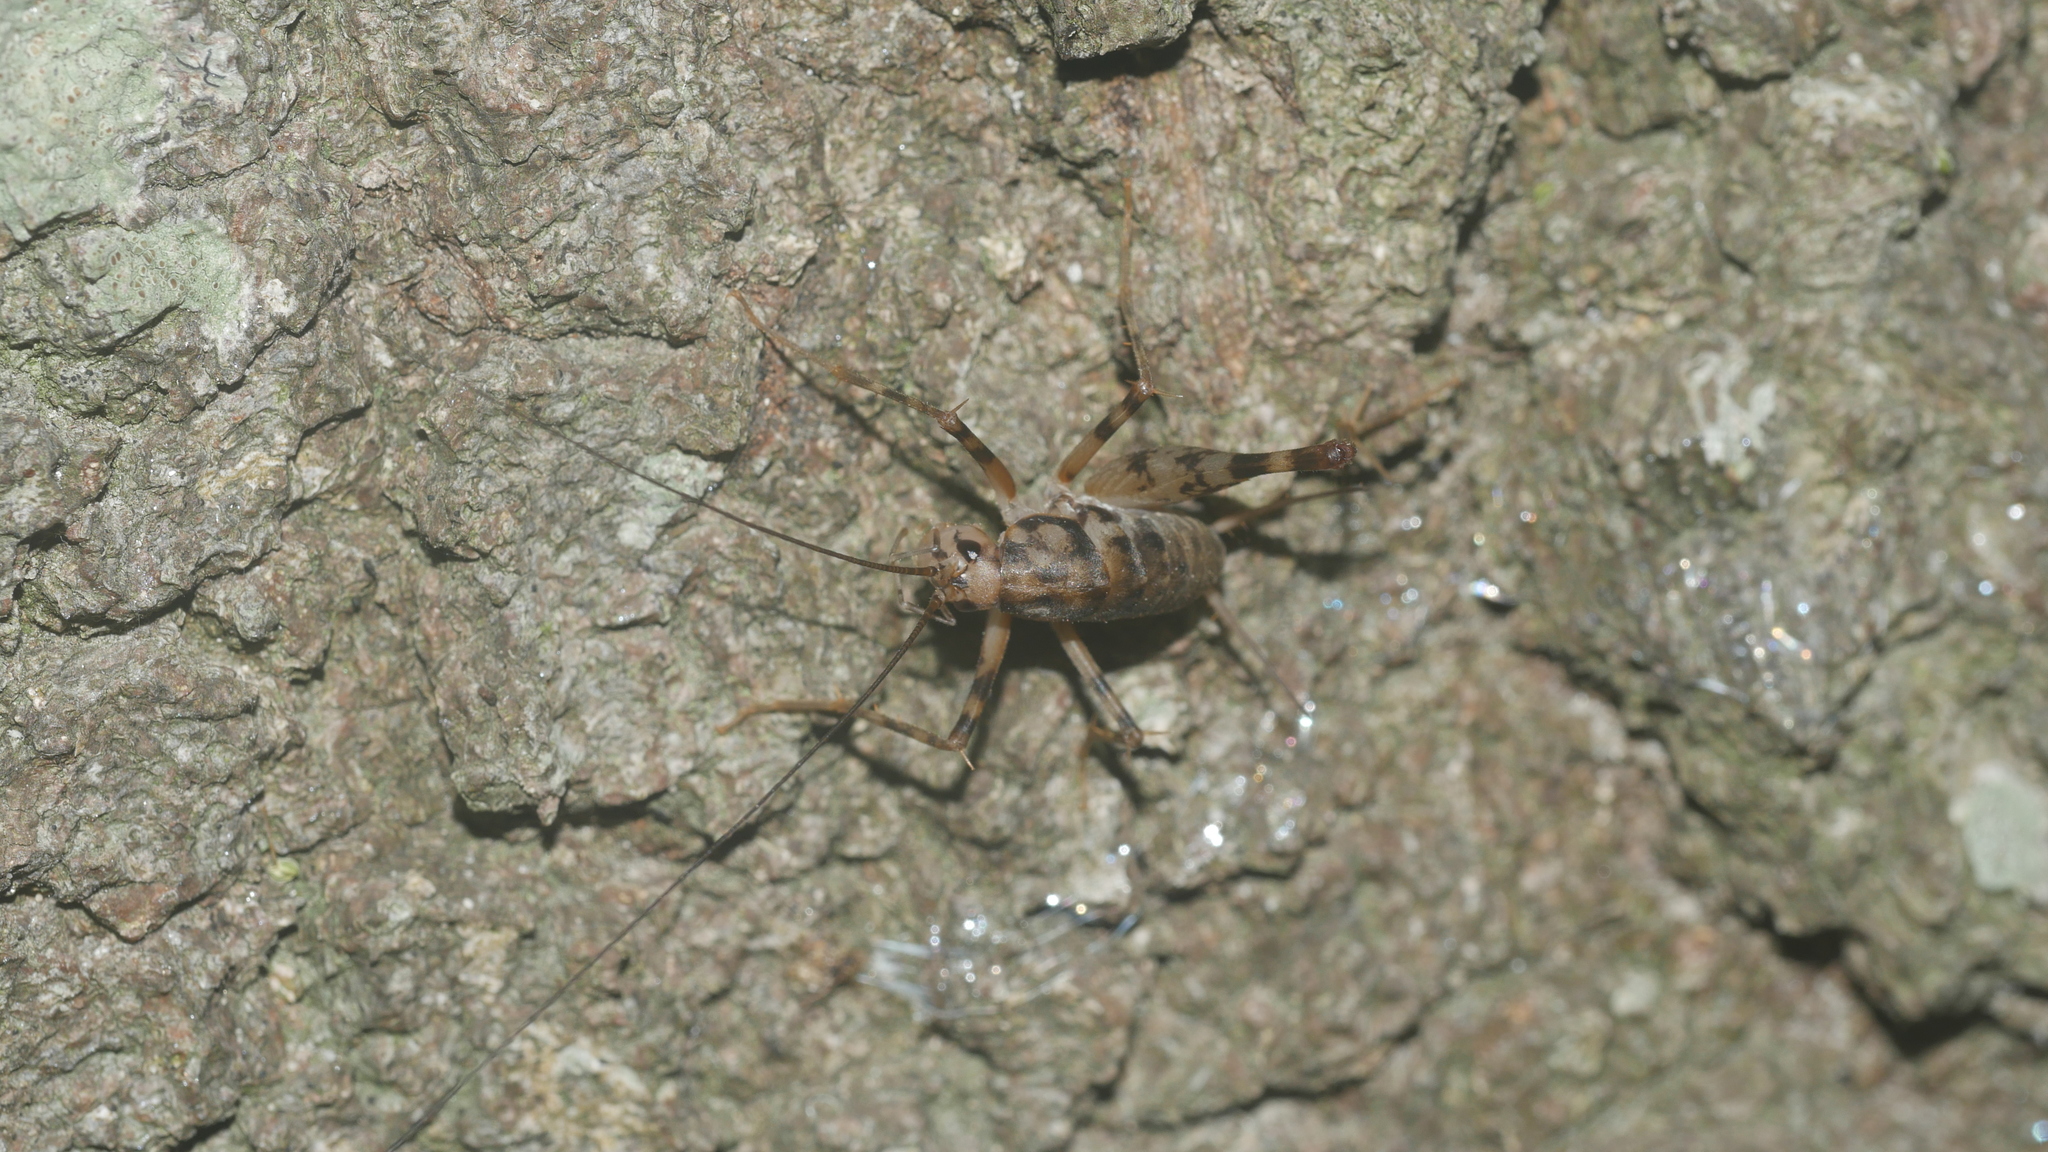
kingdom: Animalia
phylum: Arthropoda
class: Insecta
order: Orthoptera
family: Rhaphidophoridae
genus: Tachycines
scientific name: Tachycines asynamorus
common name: Greenhouse camel cricket
